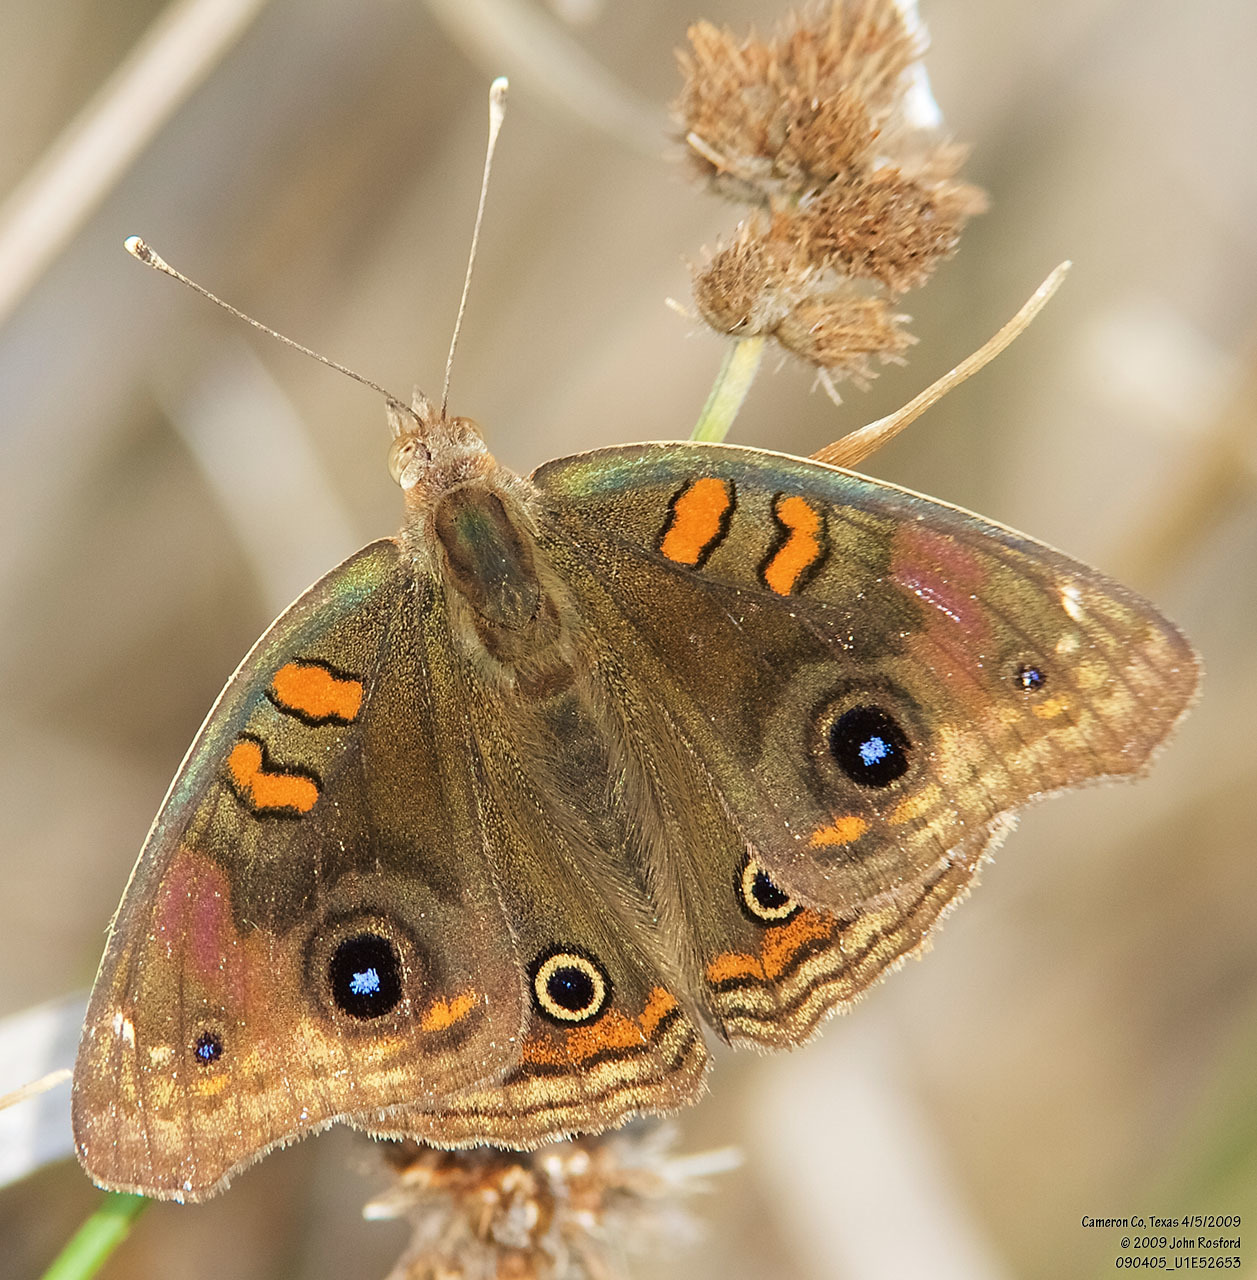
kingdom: Animalia
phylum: Arthropoda
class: Insecta
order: Lepidoptera
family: Nymphalidae
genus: Junonia
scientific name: Junonia stemosa
